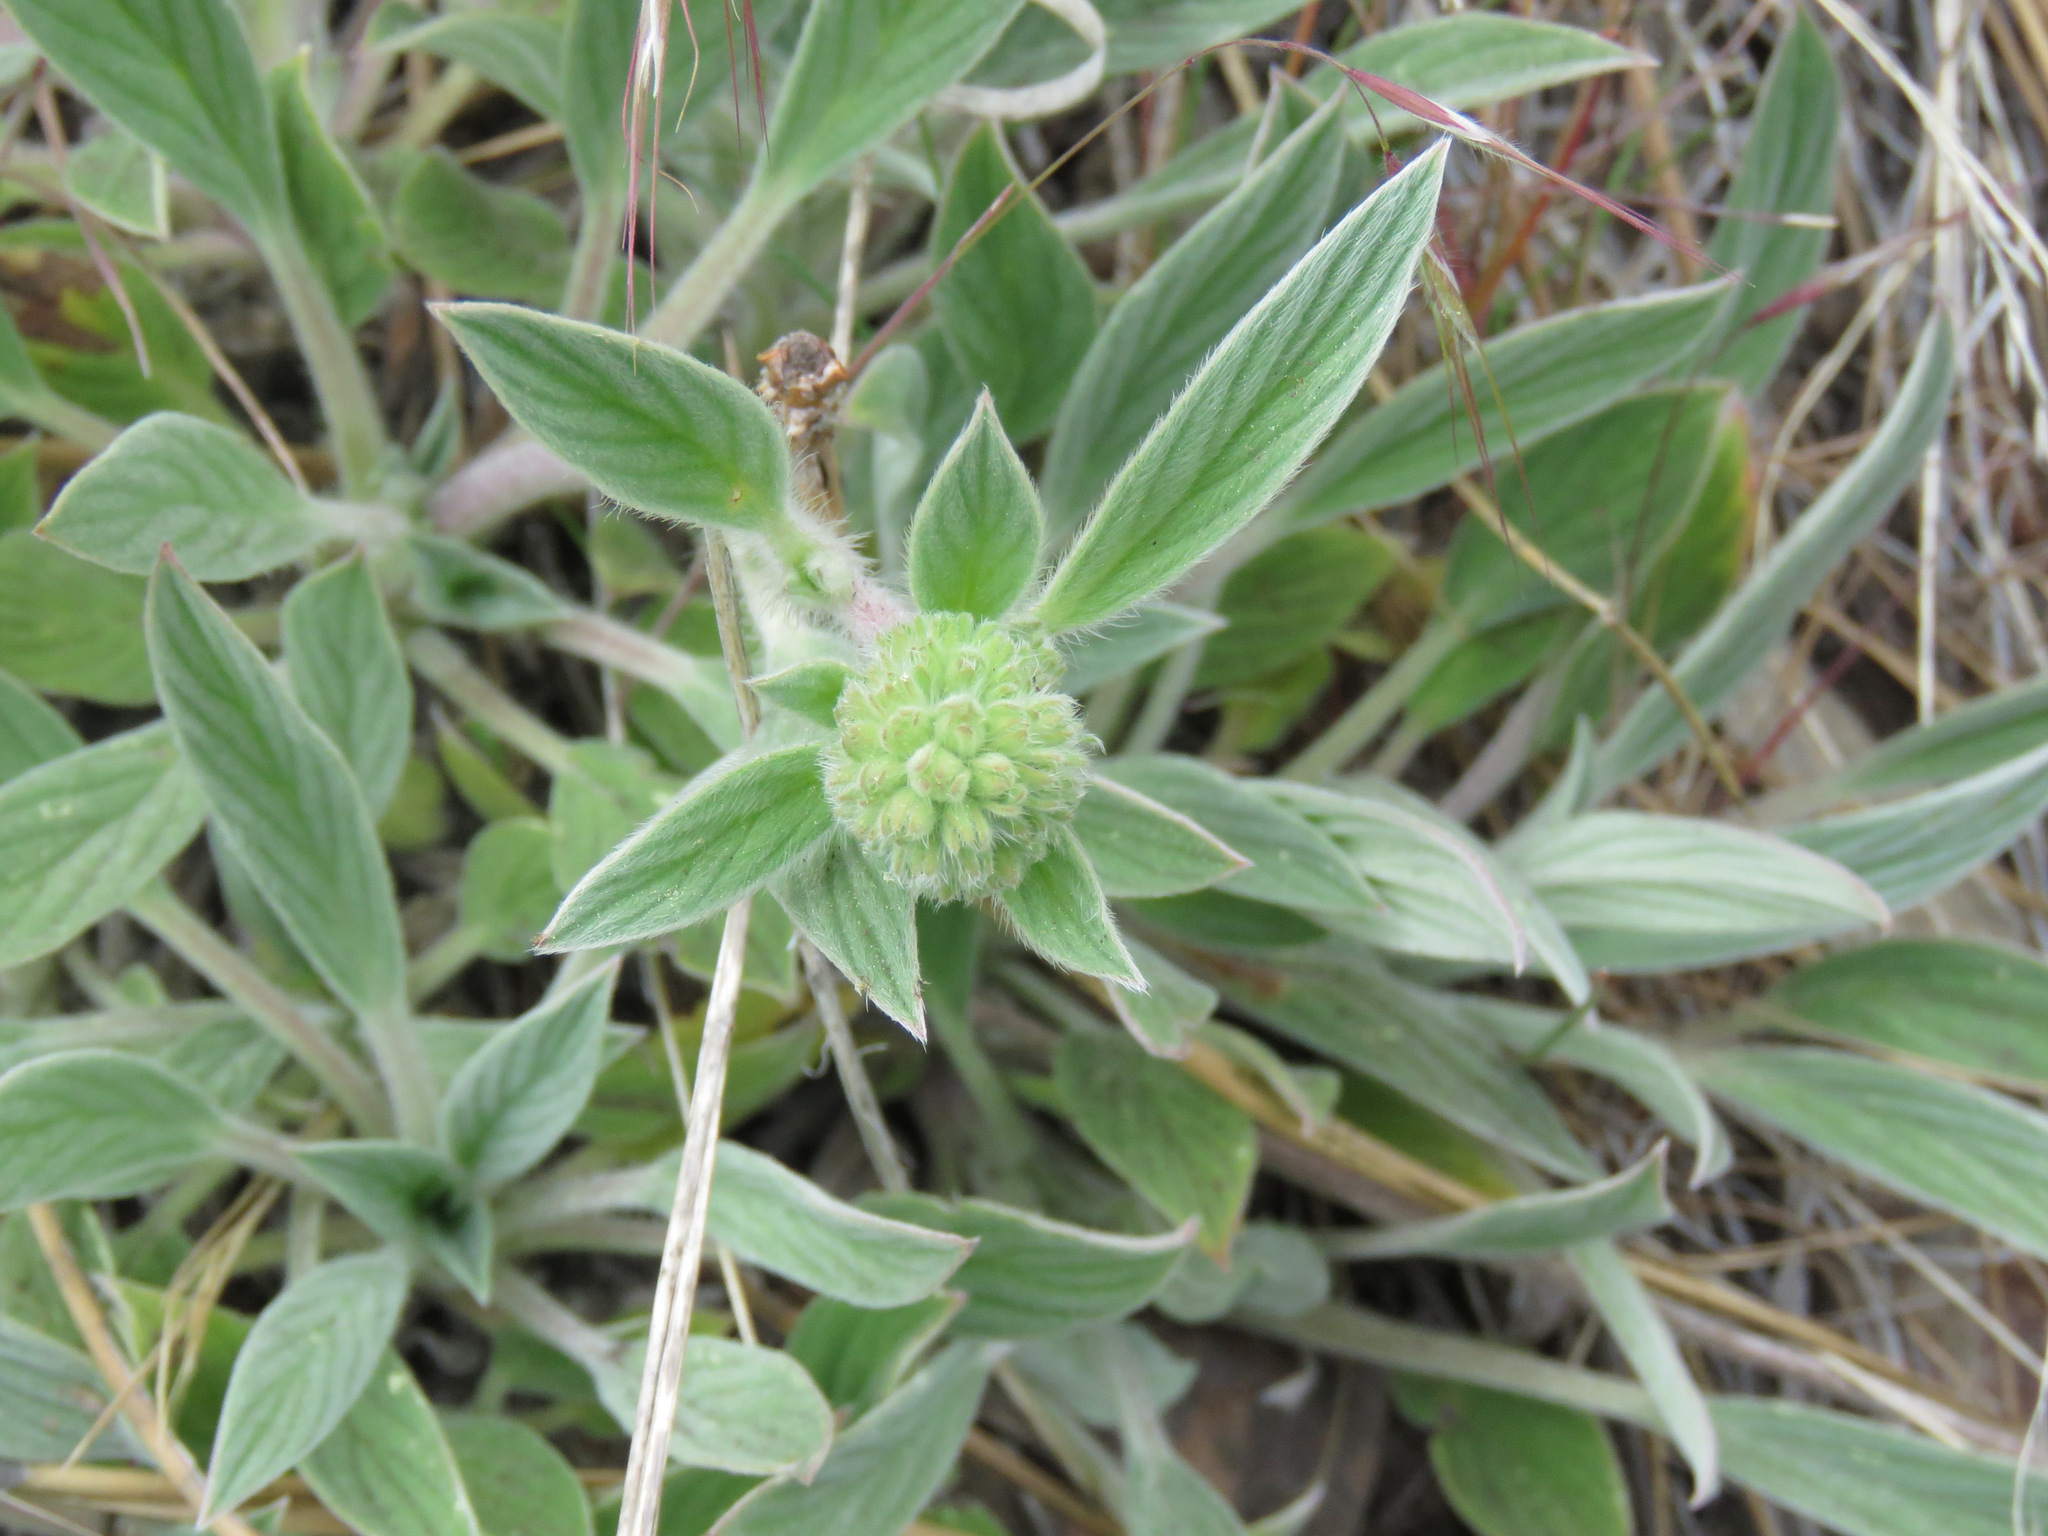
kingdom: Plantae
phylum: Tracheophyta
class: Magnoliopsida
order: Boraginales
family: Hydrophyllaceae
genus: Phacelia
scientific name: Phacelia hastata
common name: Silver-leaved phacelia
